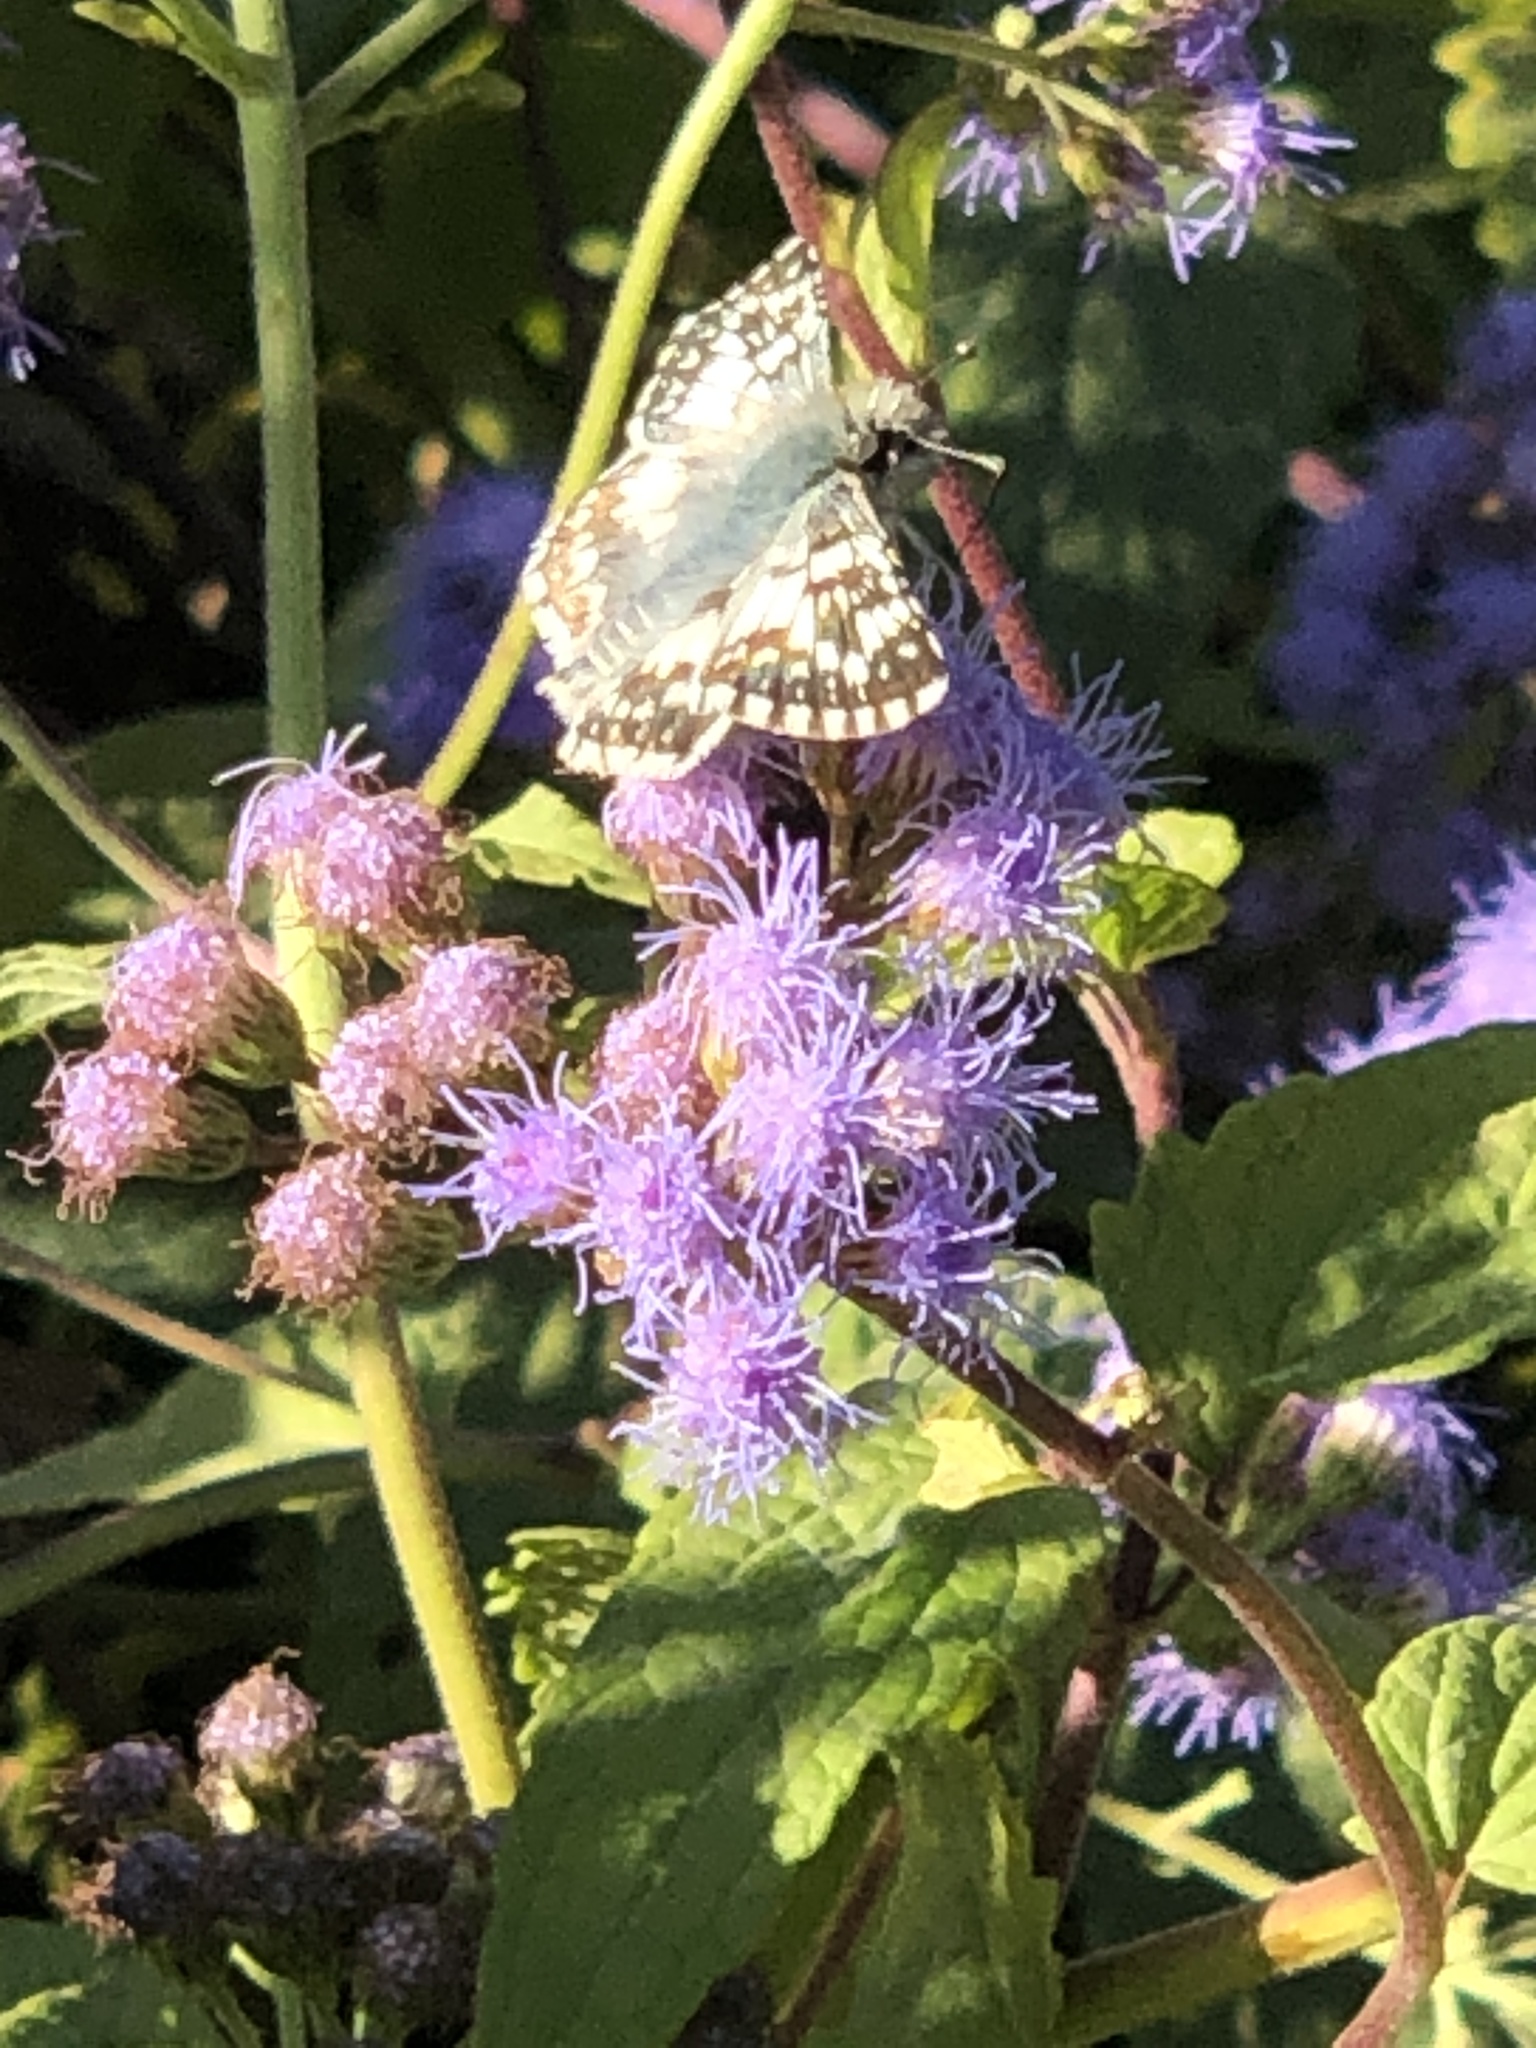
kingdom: Animalia
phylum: Arthropoda
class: Insecta
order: Lepidoptera
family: Hesperiidae
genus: Burnsius
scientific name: Burnsius communis
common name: Common checkered-skipper
